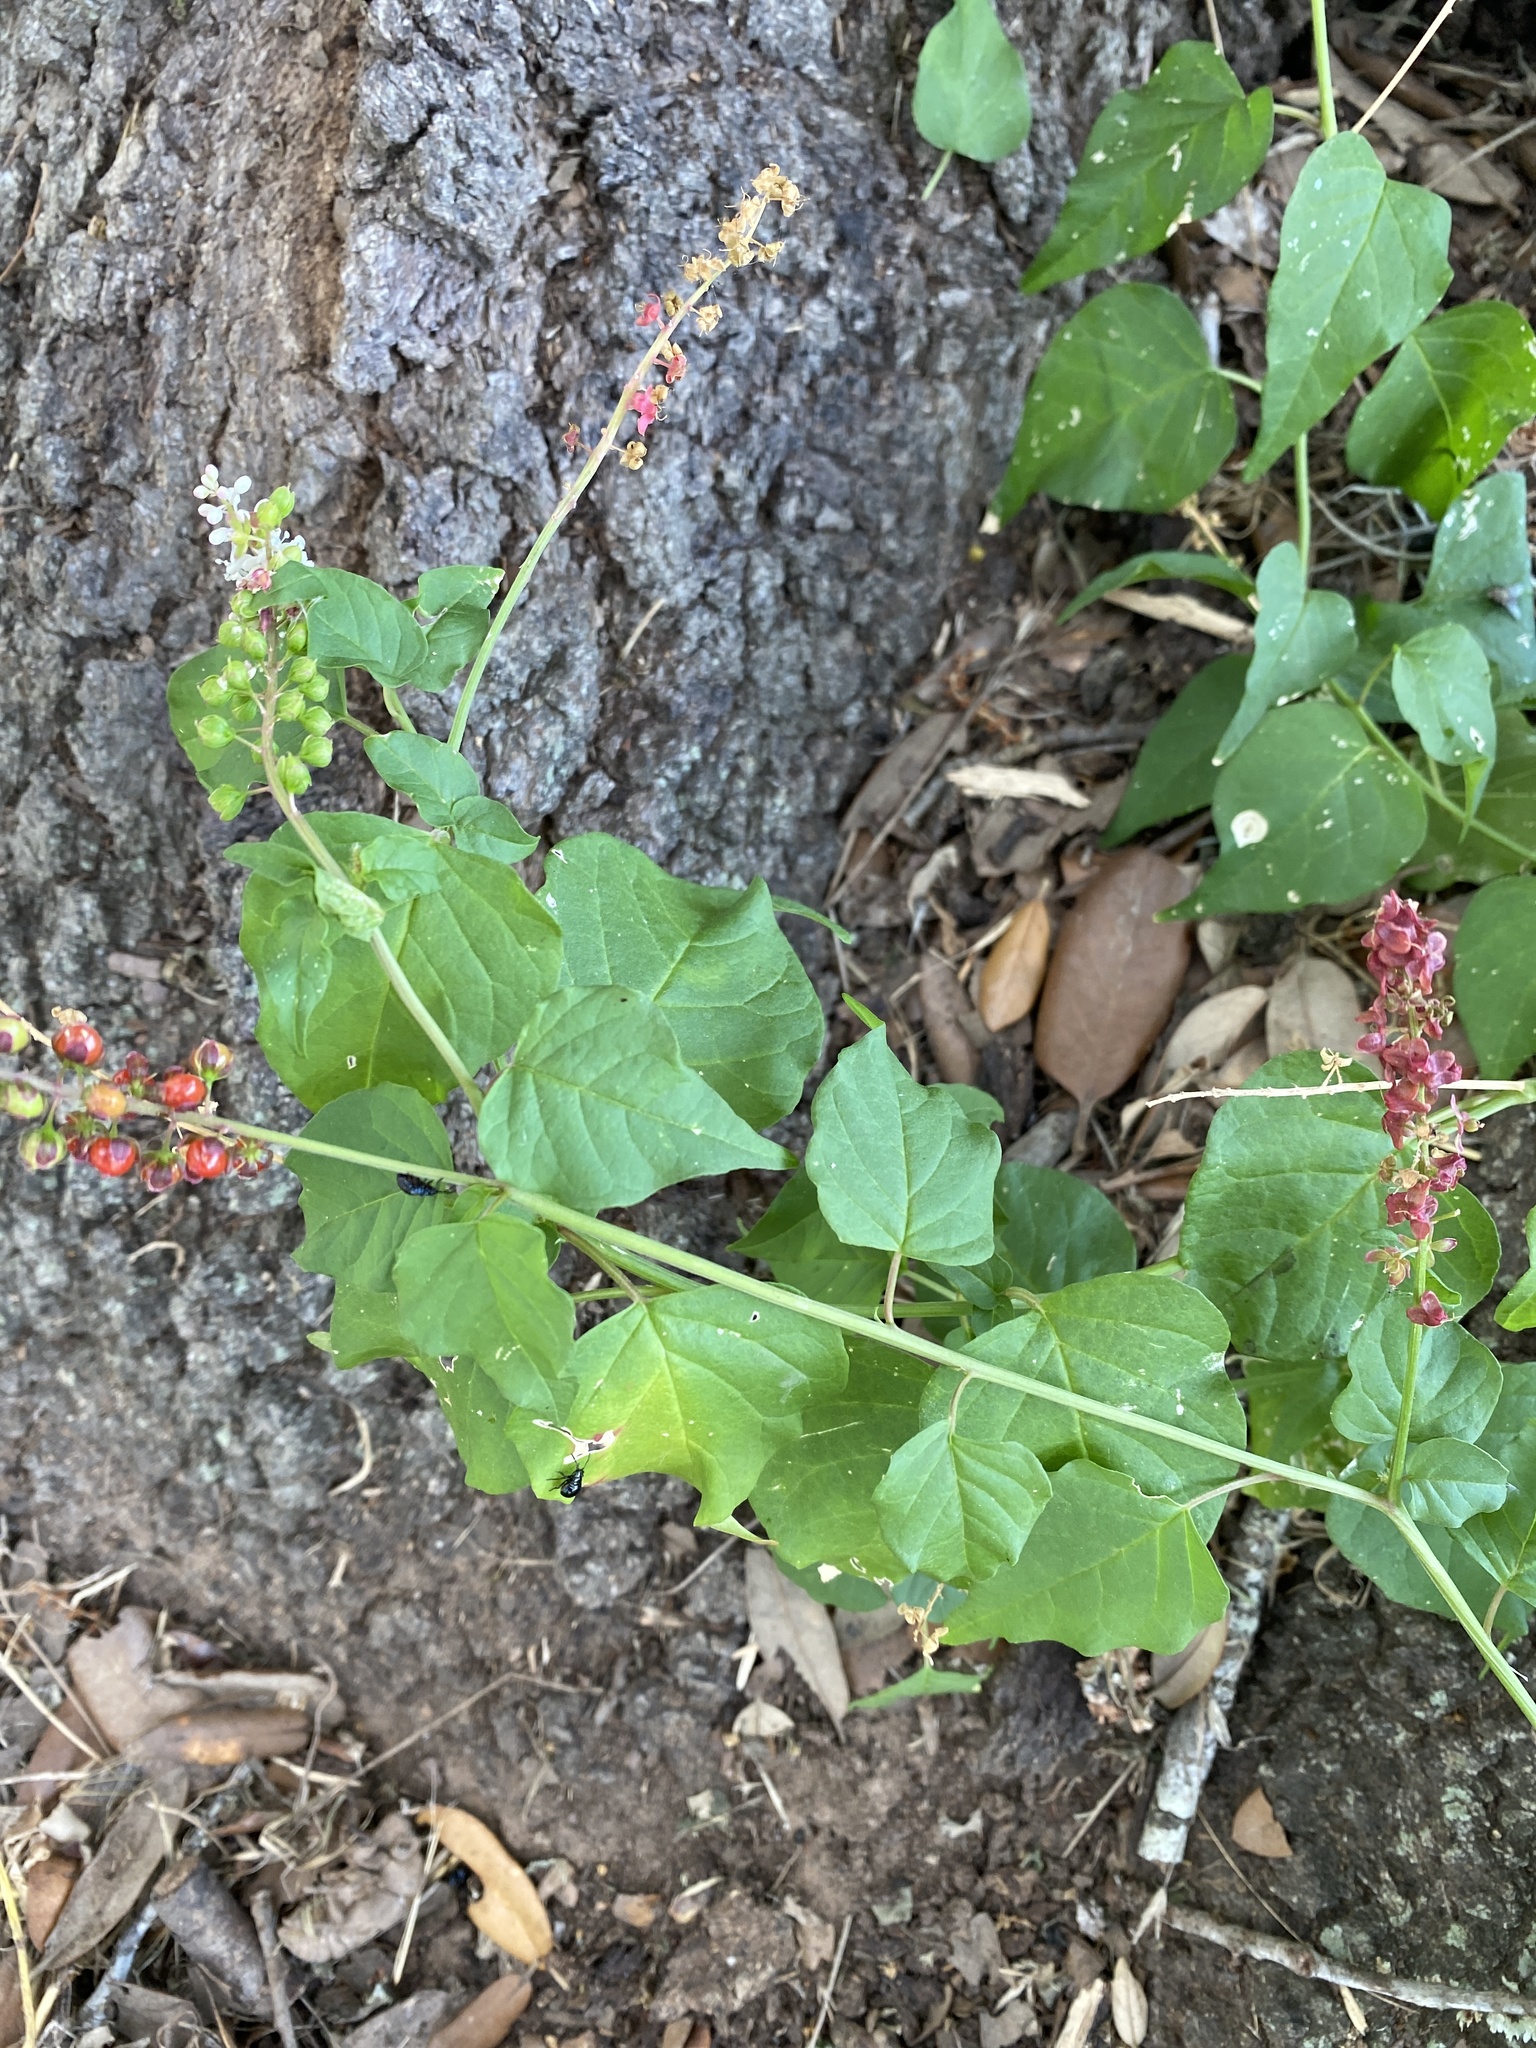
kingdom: Plantae
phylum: Tracheophyta
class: Magnoliopsida
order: Caryophyllales
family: Phytolaccaceae
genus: Rivina
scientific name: Rivina humilis
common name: Rougeplant
